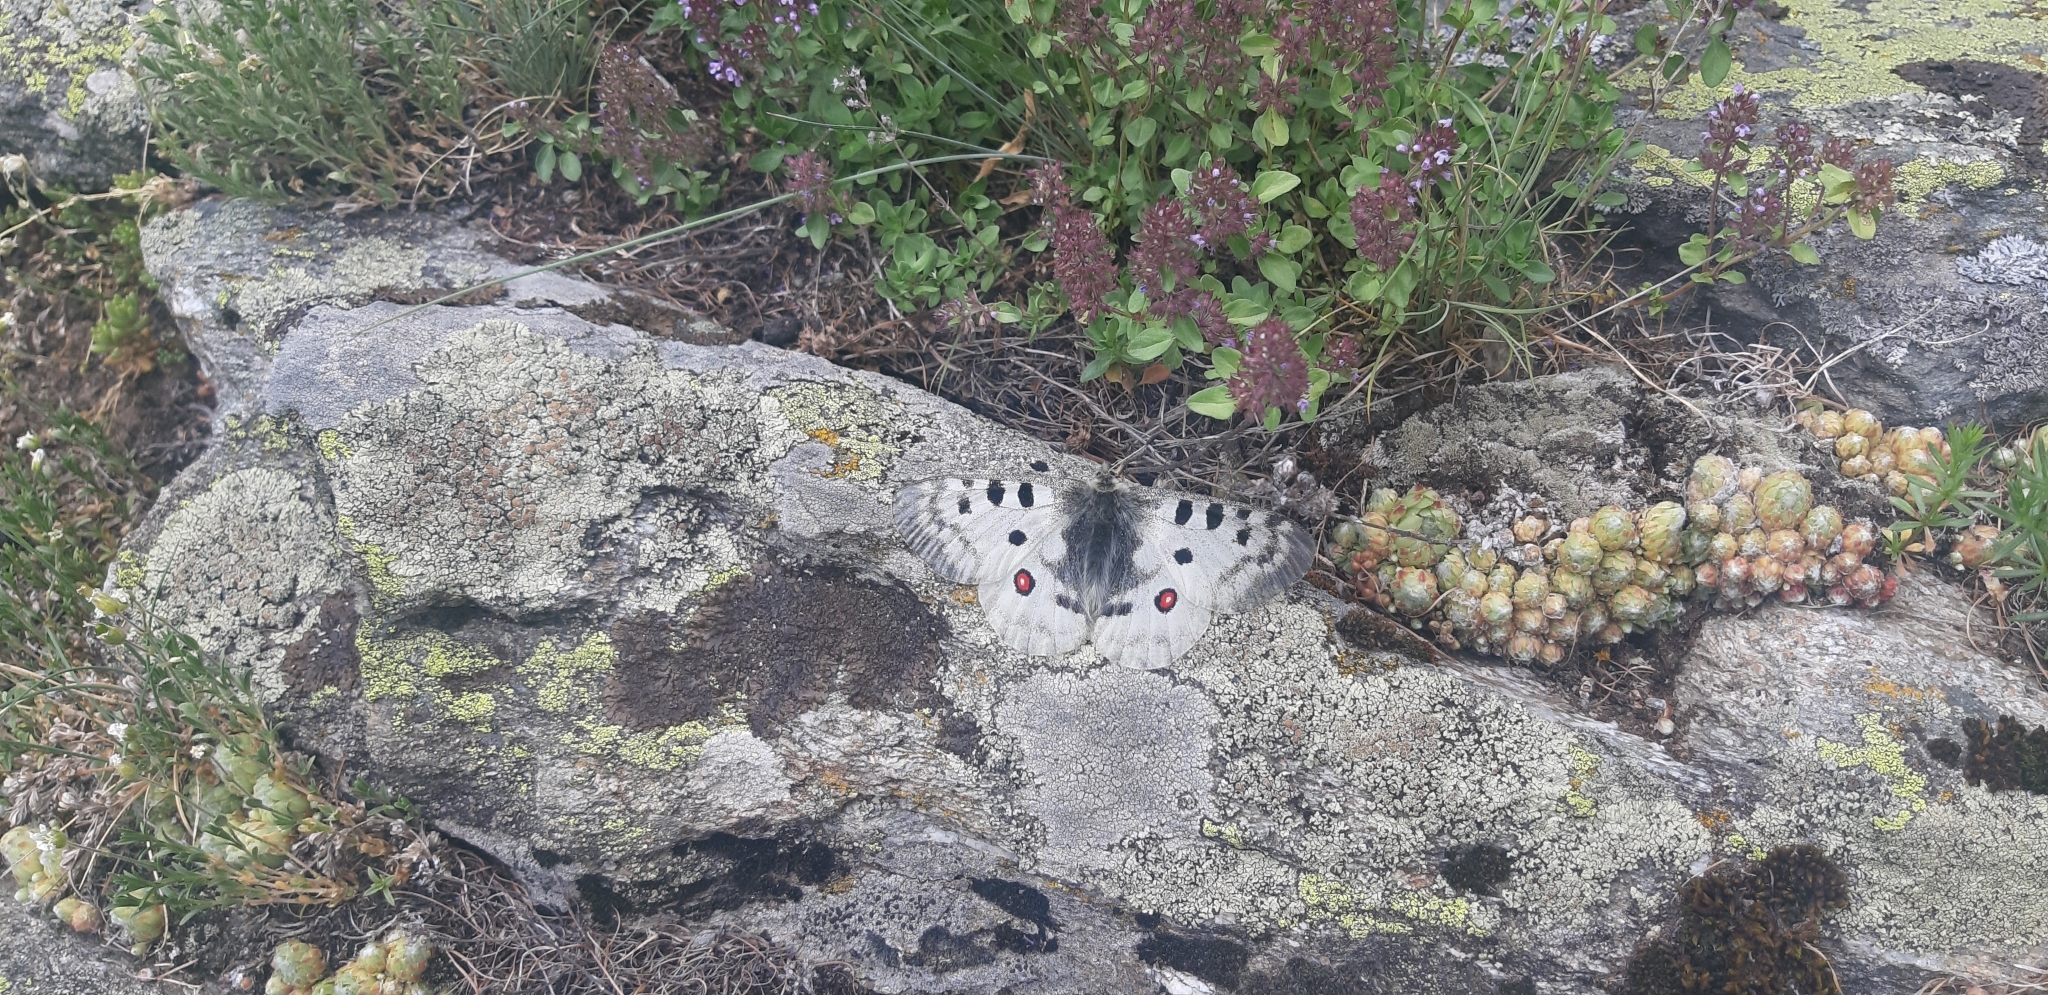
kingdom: Animalia
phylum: Arthropoda
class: Insecta
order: Lepidoptera
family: Papilionidae
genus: Parnassius
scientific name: Parnassius apollo
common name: Apollo
